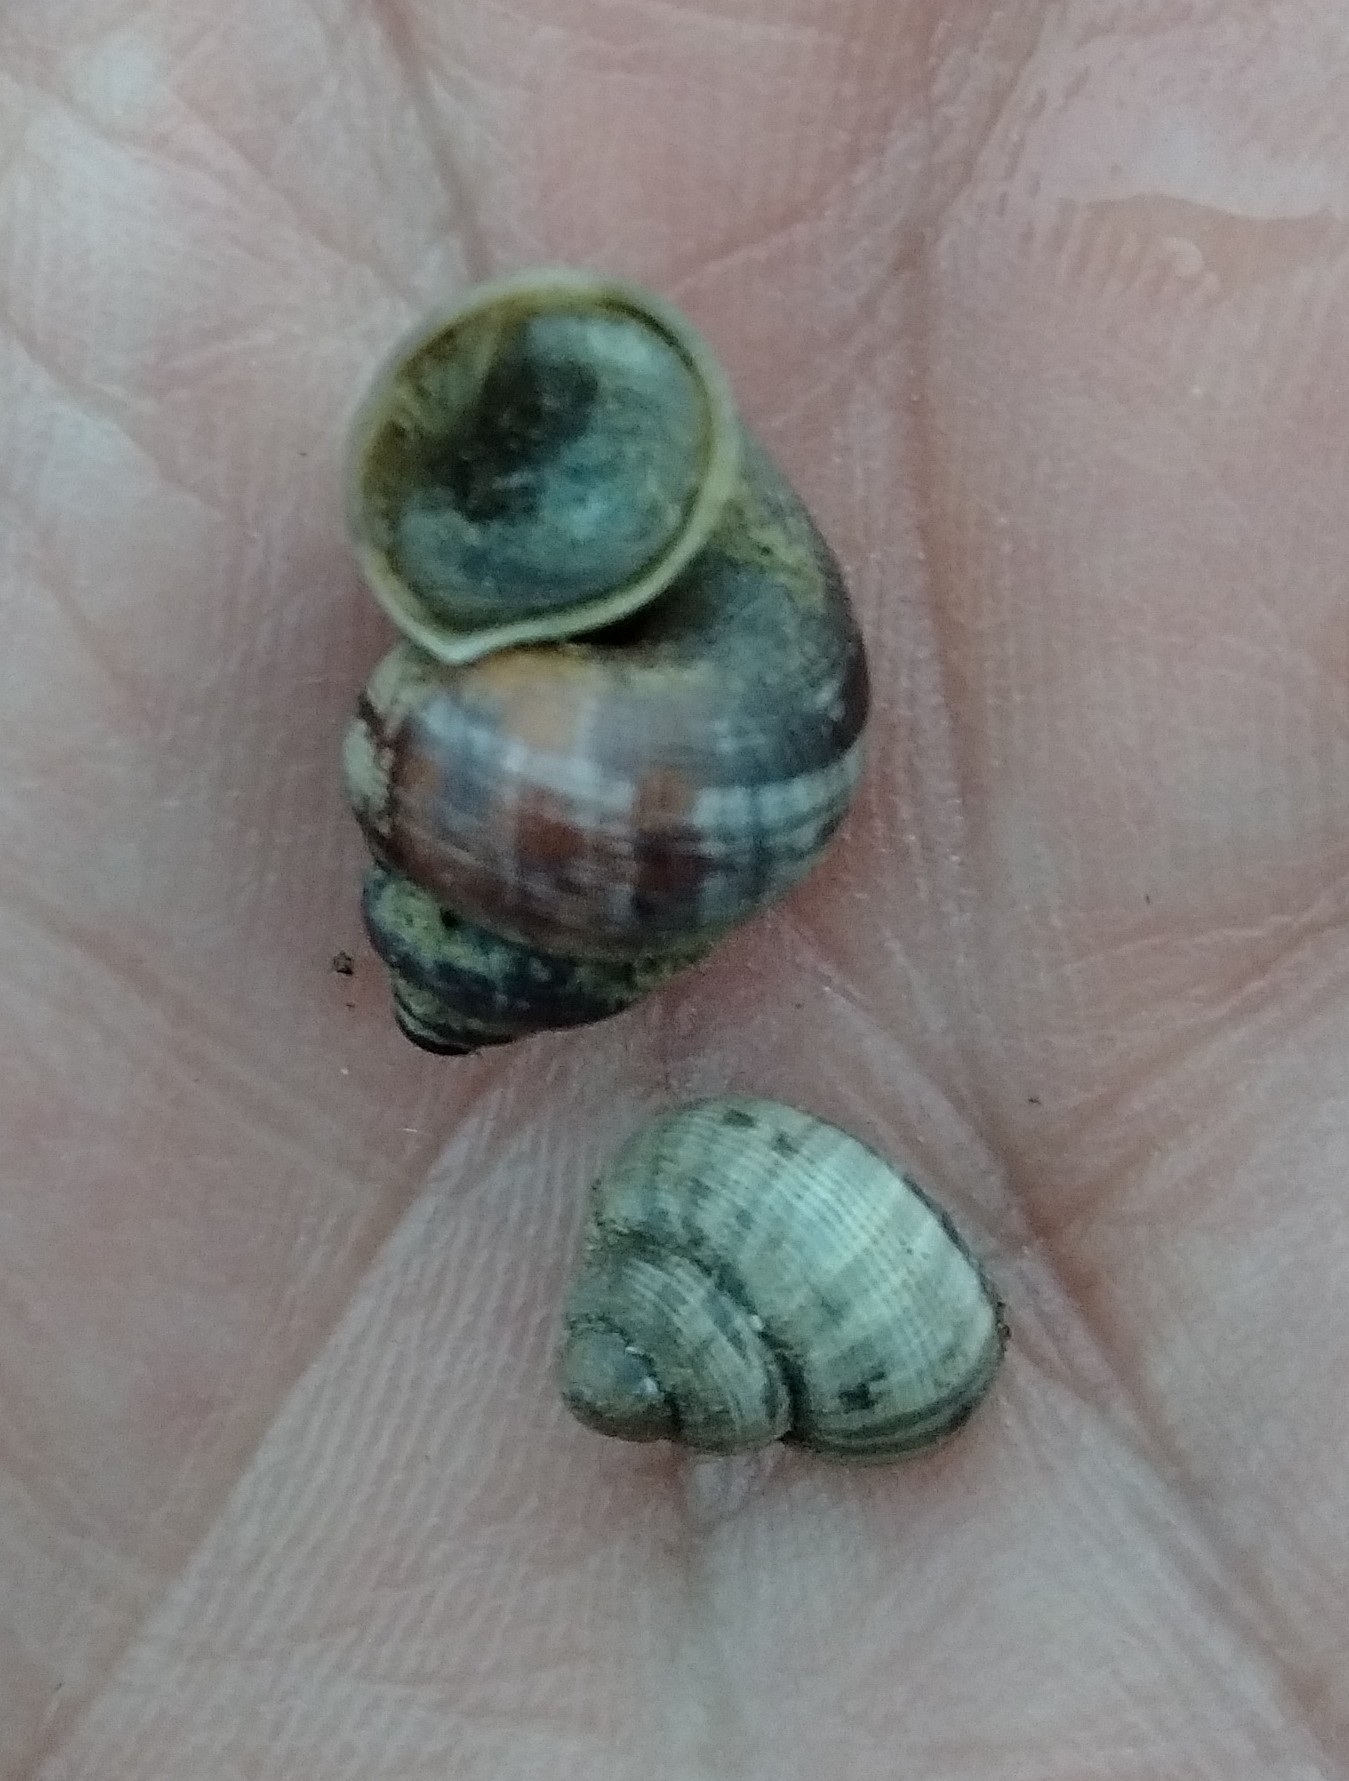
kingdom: Animalia
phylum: Mollusca
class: Gastropoda
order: Littorinimorpha
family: Pomatiidae
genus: Pomatias
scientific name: Pomatias elegans
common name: Red-mouthed snail
